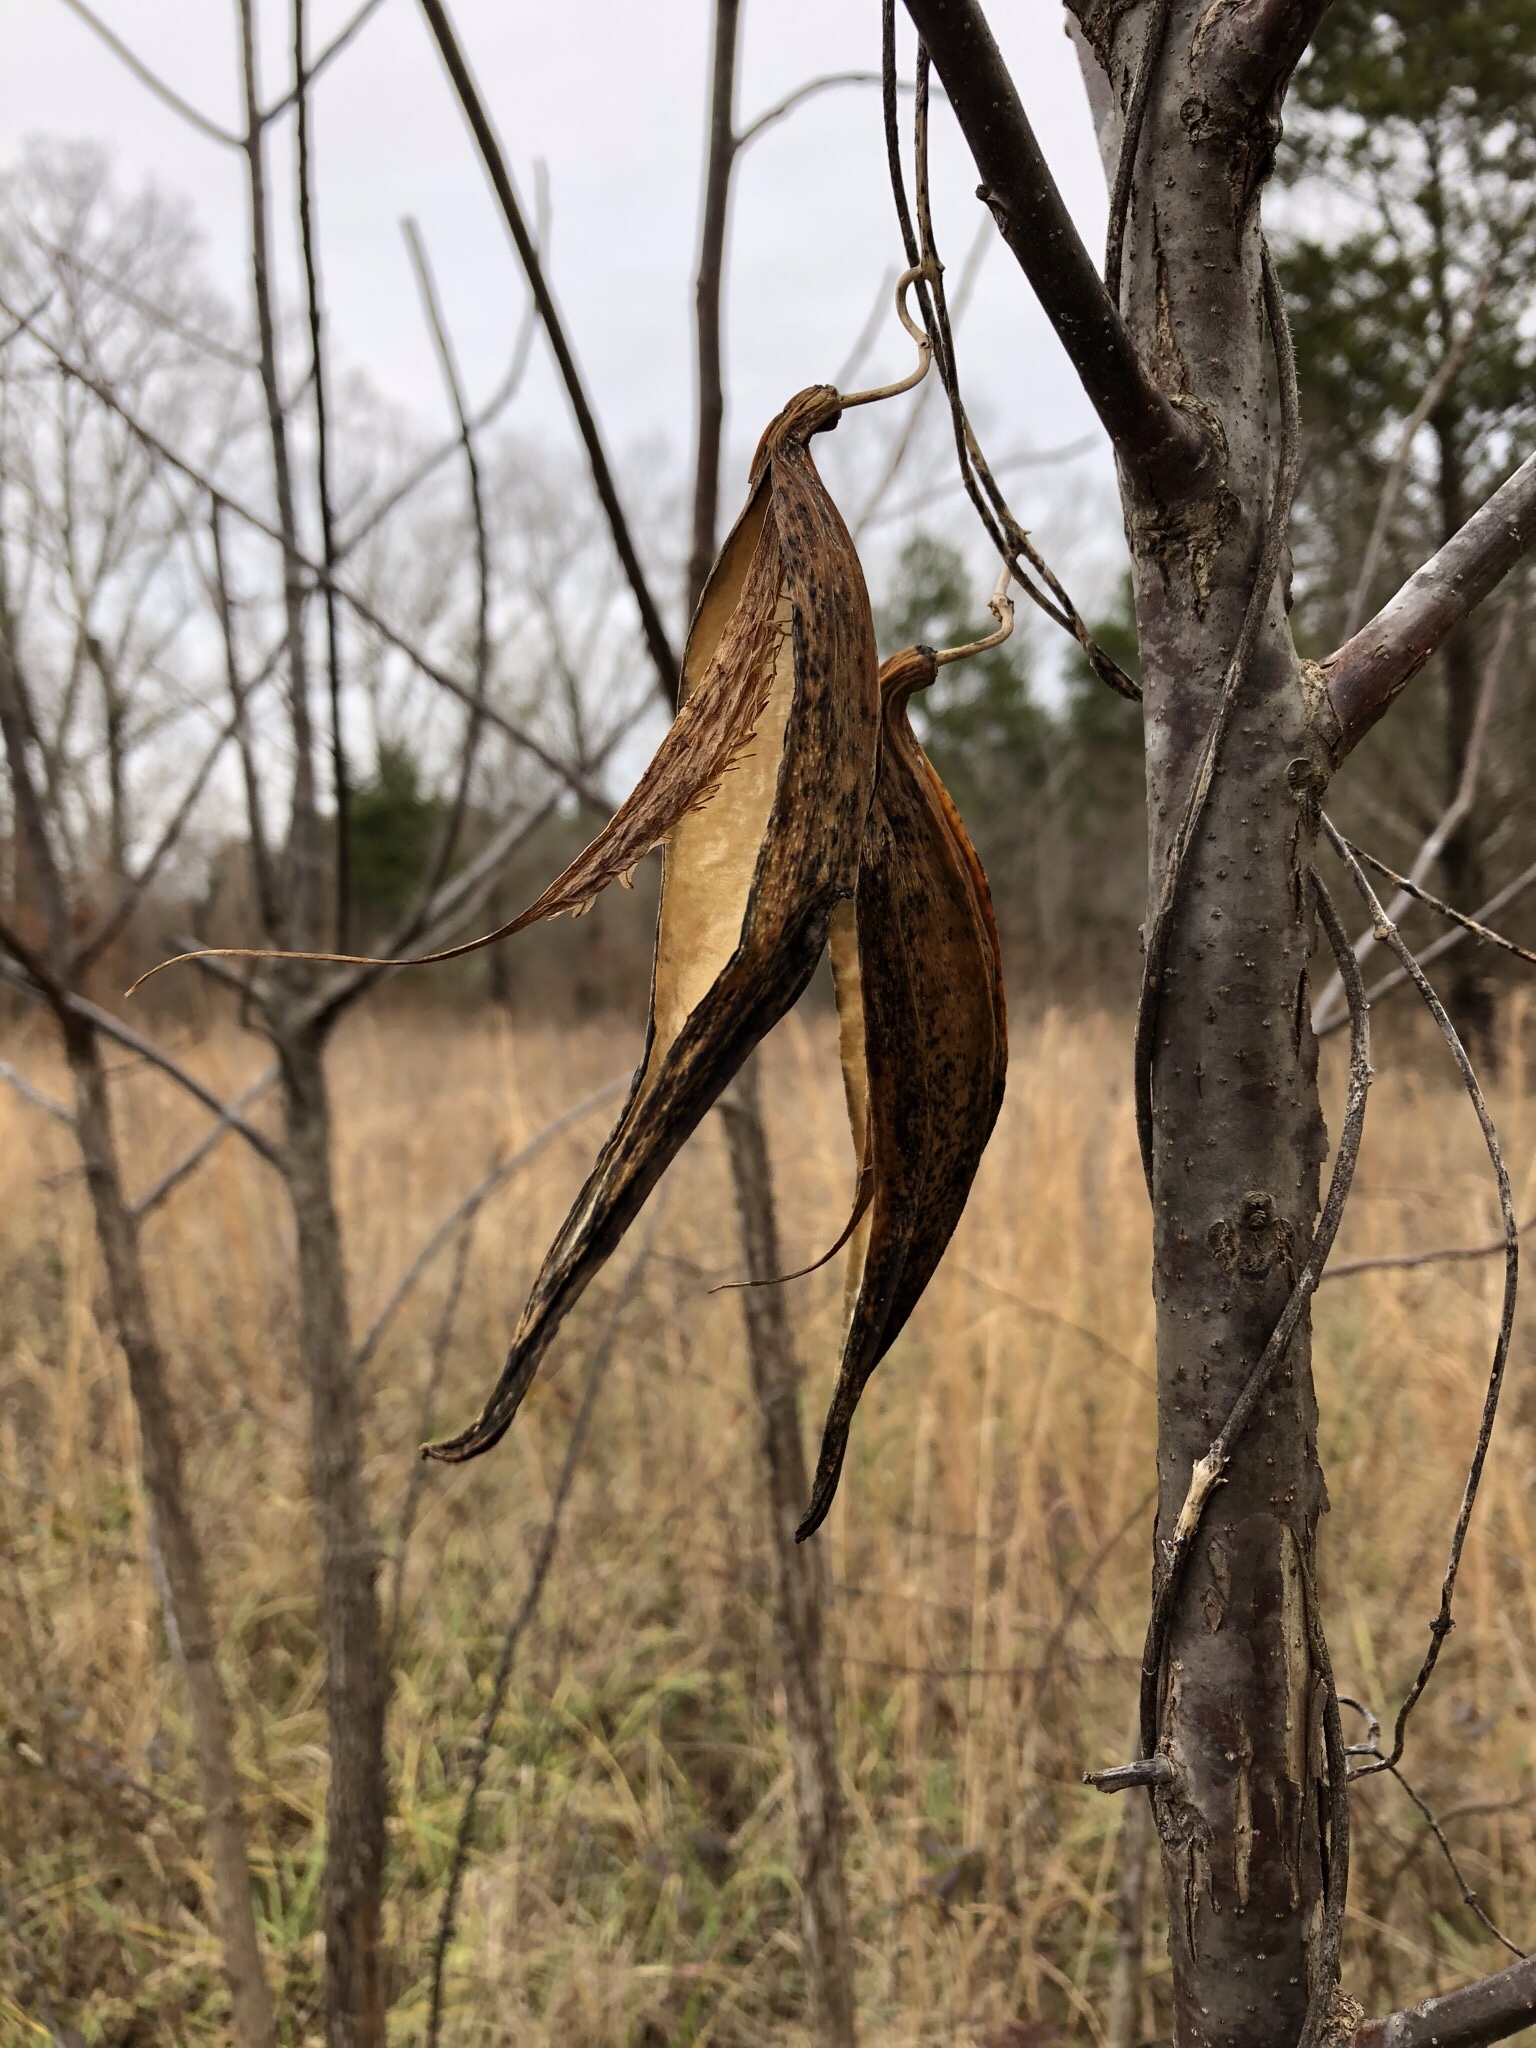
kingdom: Plantae
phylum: Tracheophyta
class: Magnoliopsida
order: Gentianales
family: Apocynaceae
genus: Gonolobus
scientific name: Gonolobus suberosus
